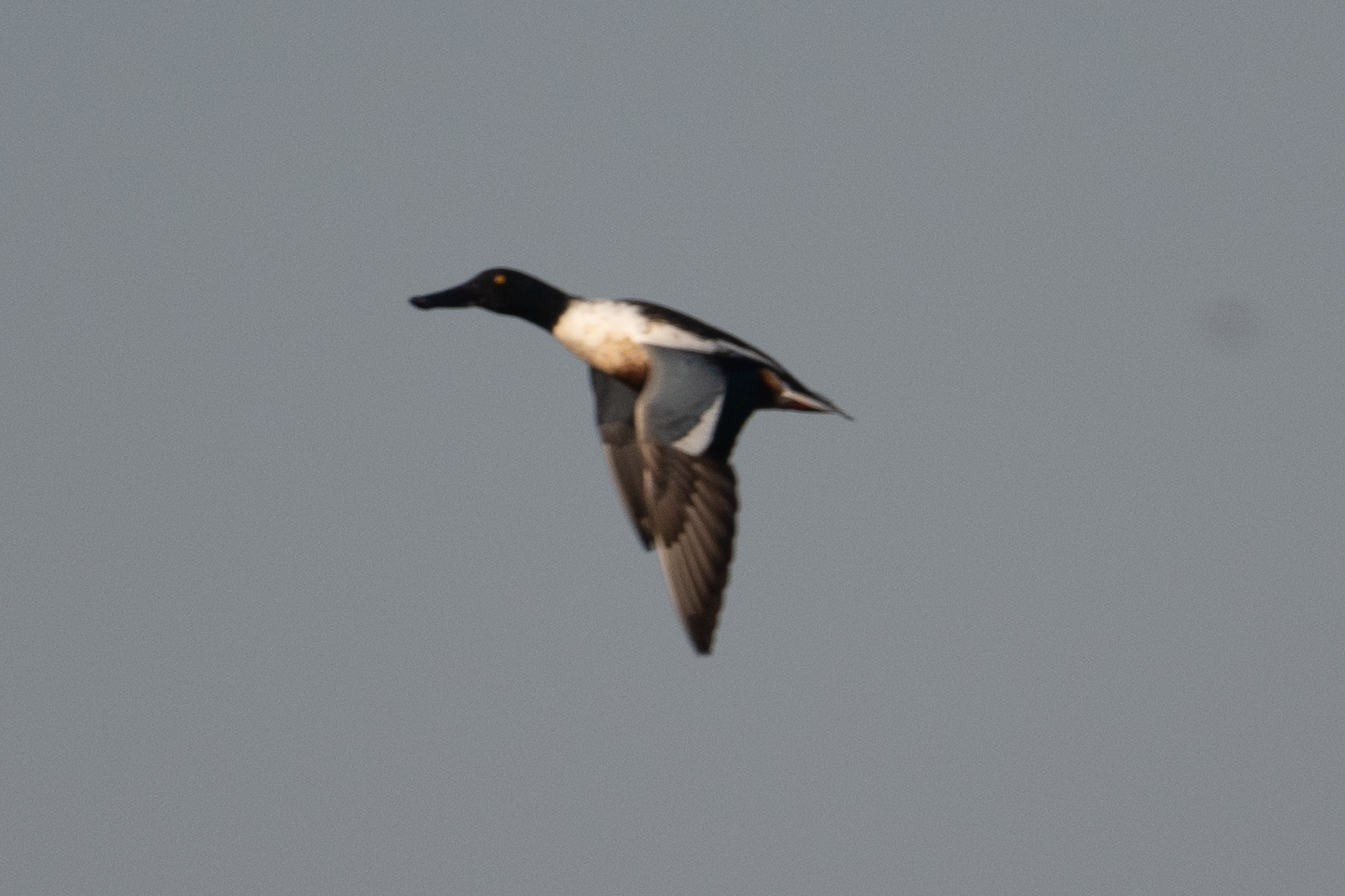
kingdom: Animalia
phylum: Chordata
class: Aves
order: Anseriformes
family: Anatidae
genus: Spatula
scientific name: Spatula clypeata
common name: Northern shoveler
